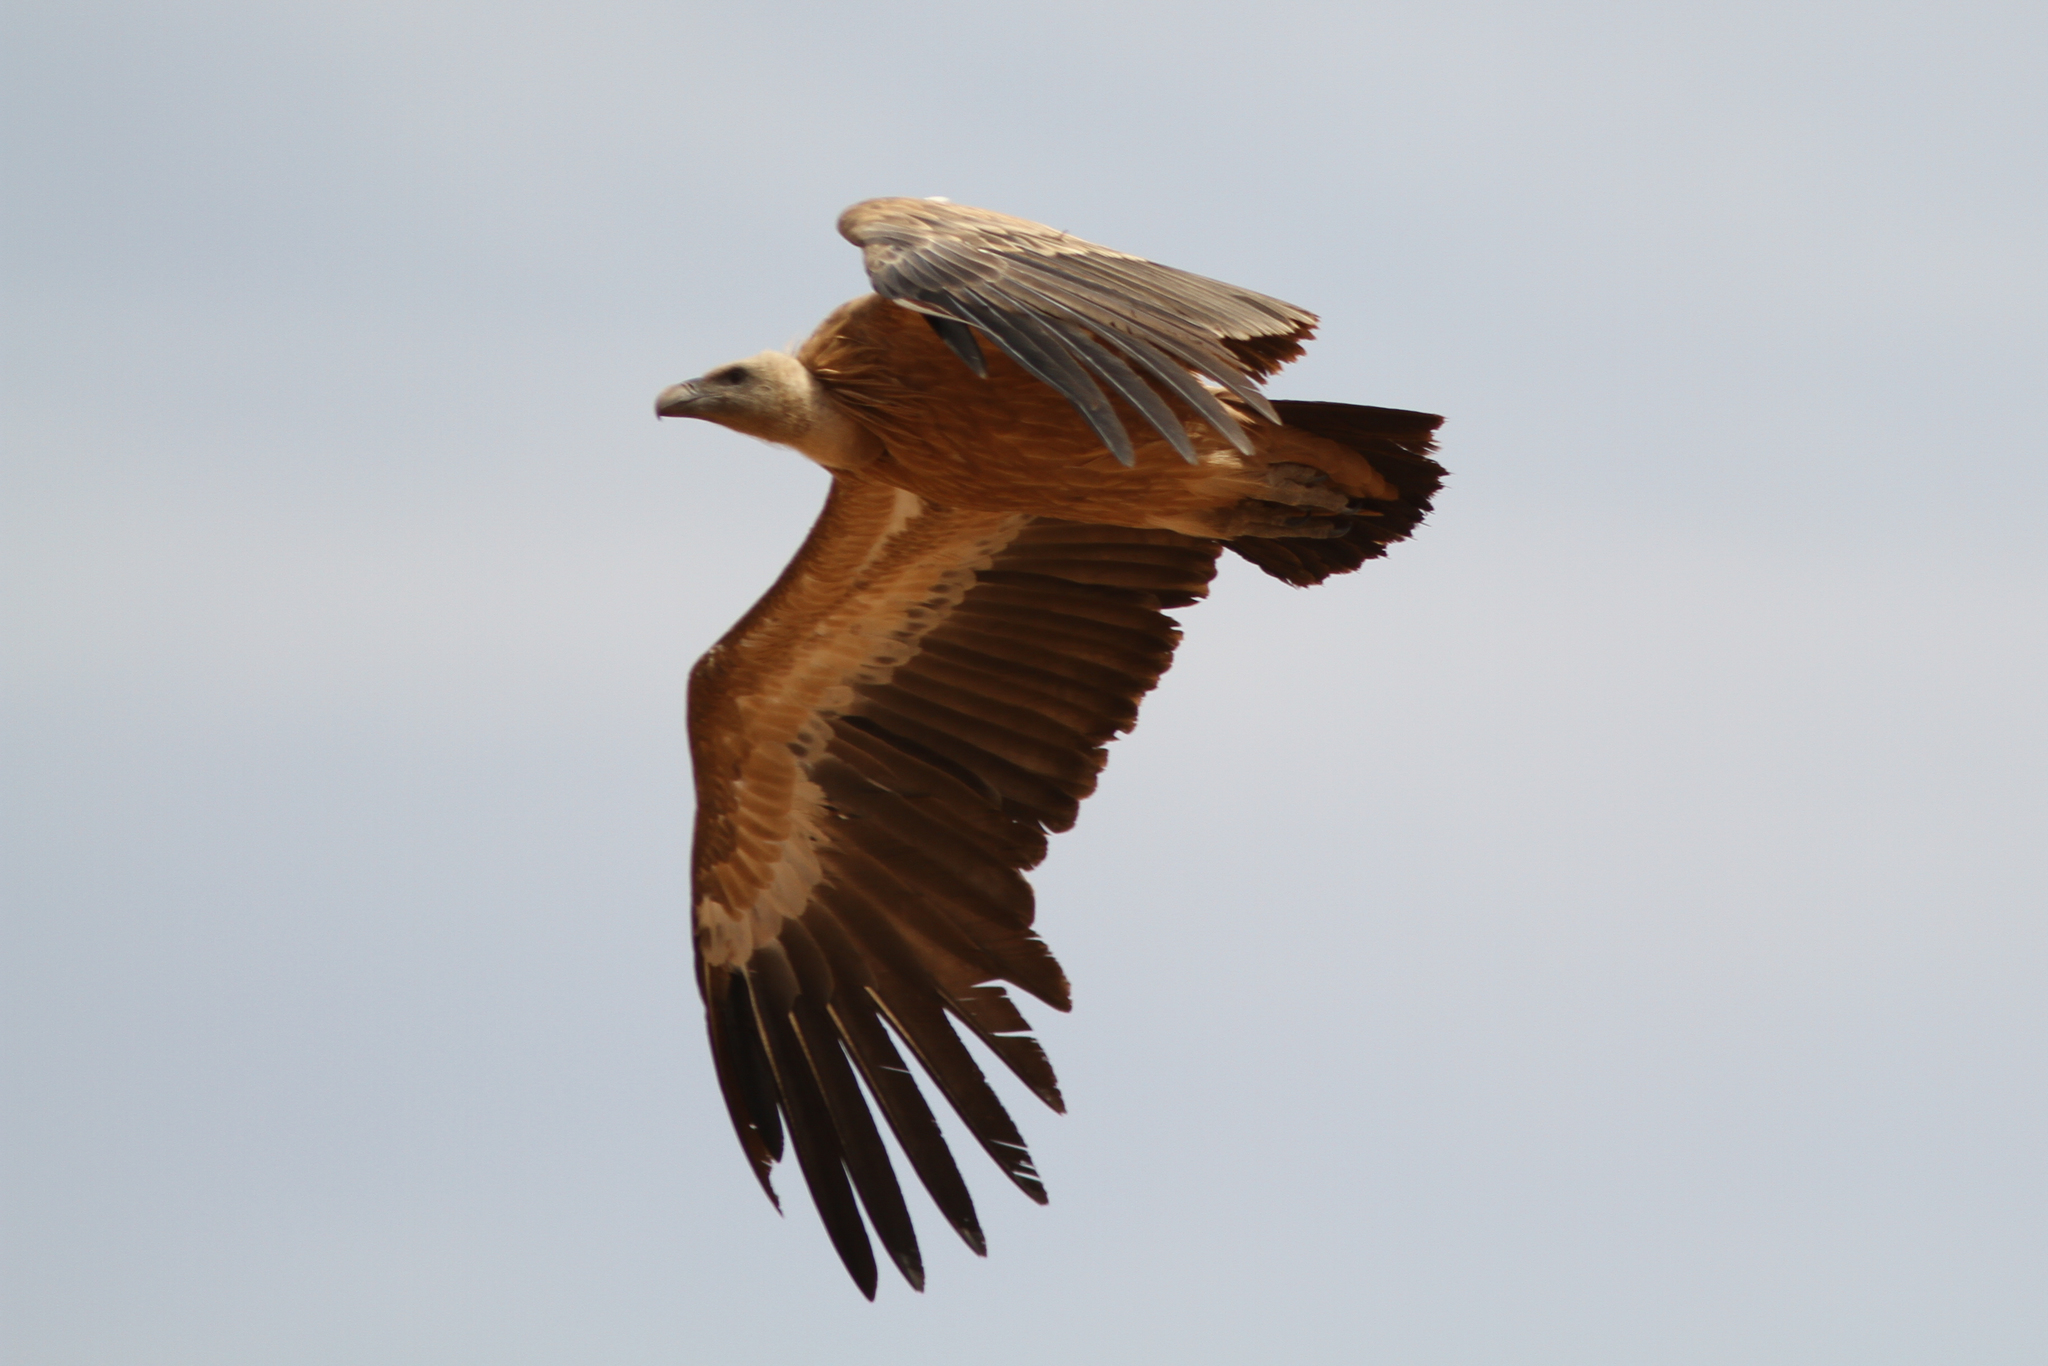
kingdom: Animalia
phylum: Chordata
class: Aves
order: Accipitriformes
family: Accipitridae
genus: Gyps
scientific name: Gyps fulvus
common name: Griffon vulture
